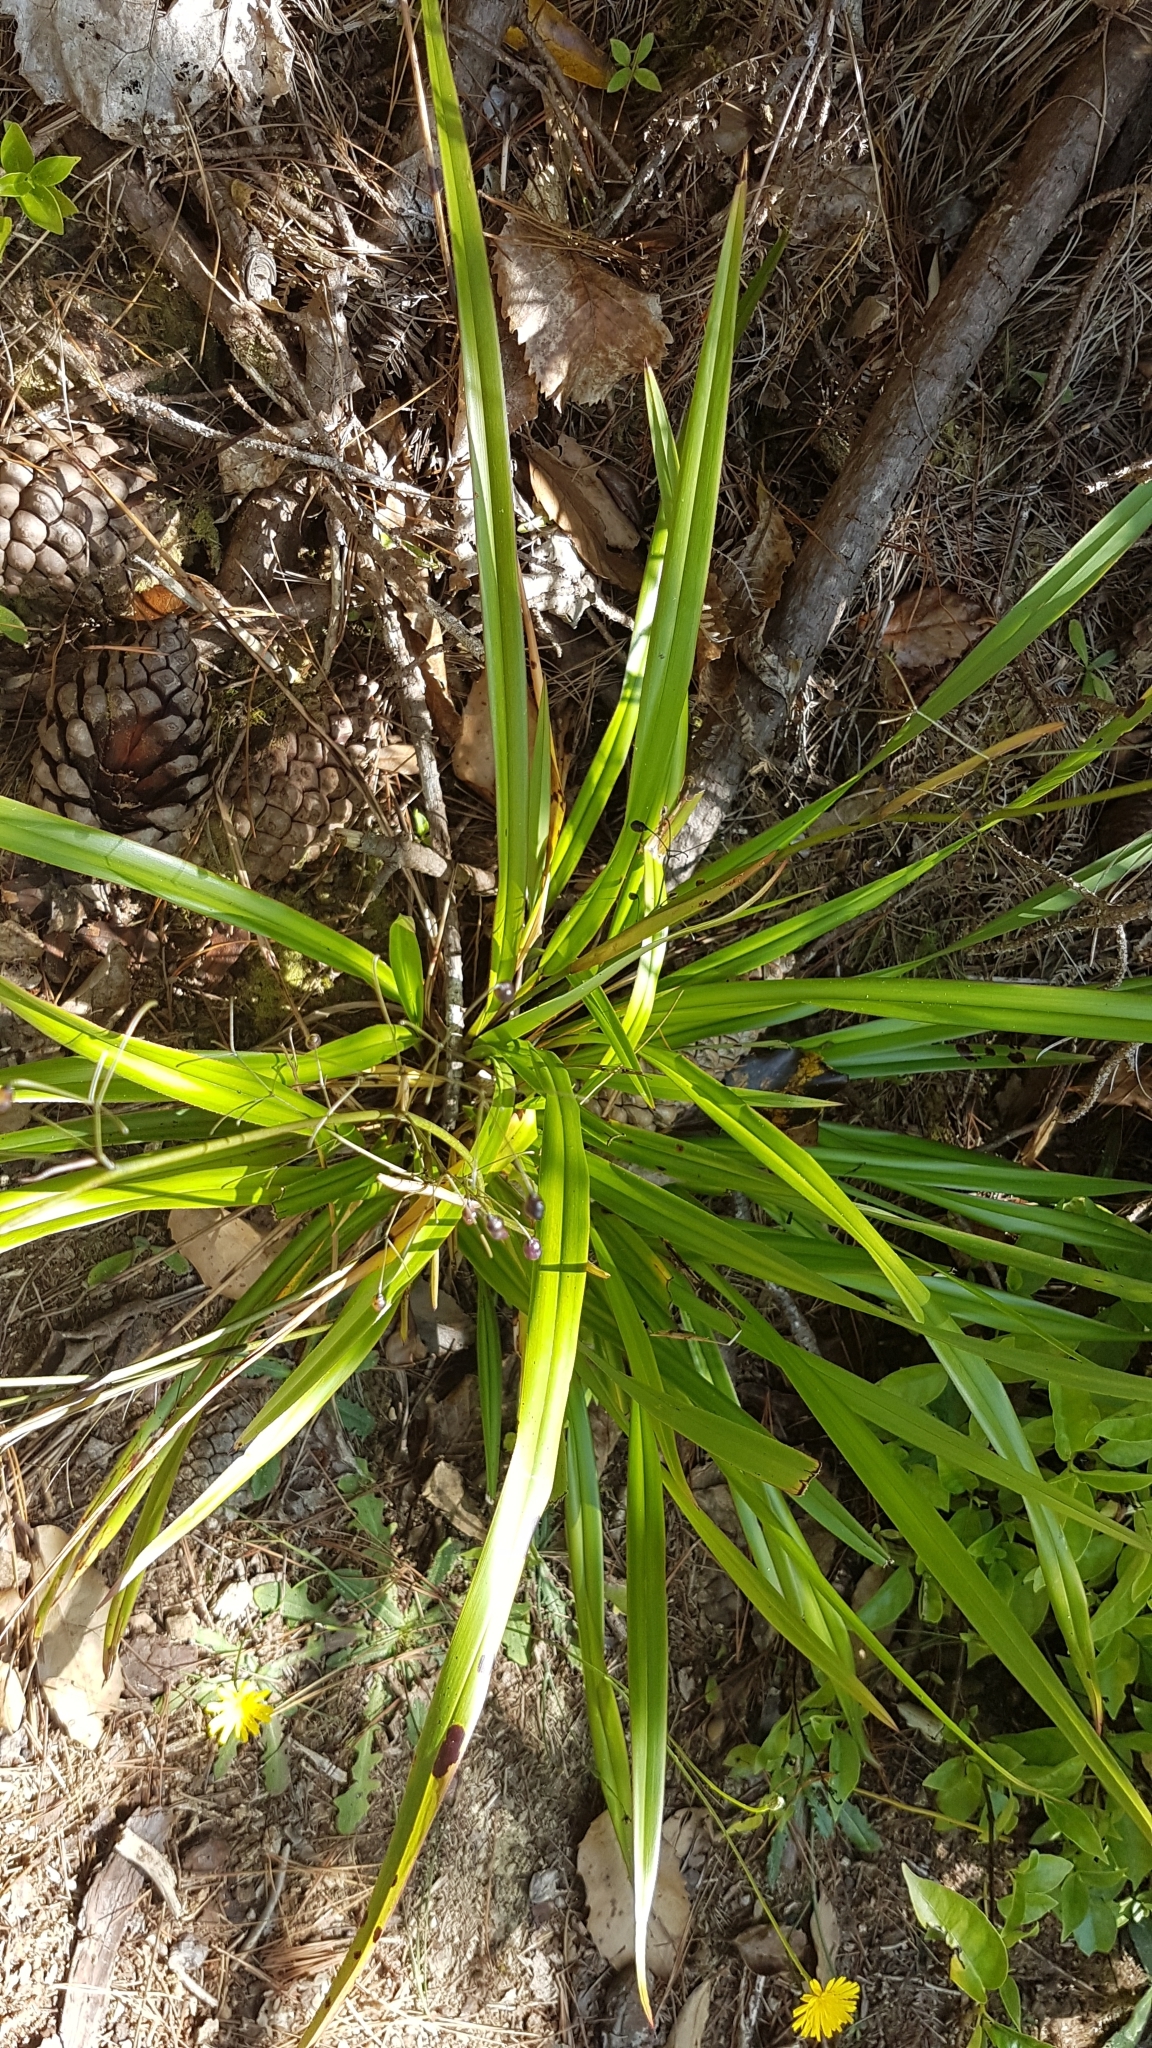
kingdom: Plantae
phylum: Tracheophyta
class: Liliopsida
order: Asparagales
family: Asphodelaceae
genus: Dianella
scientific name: Dianella nigra
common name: New zealand-blueberry
